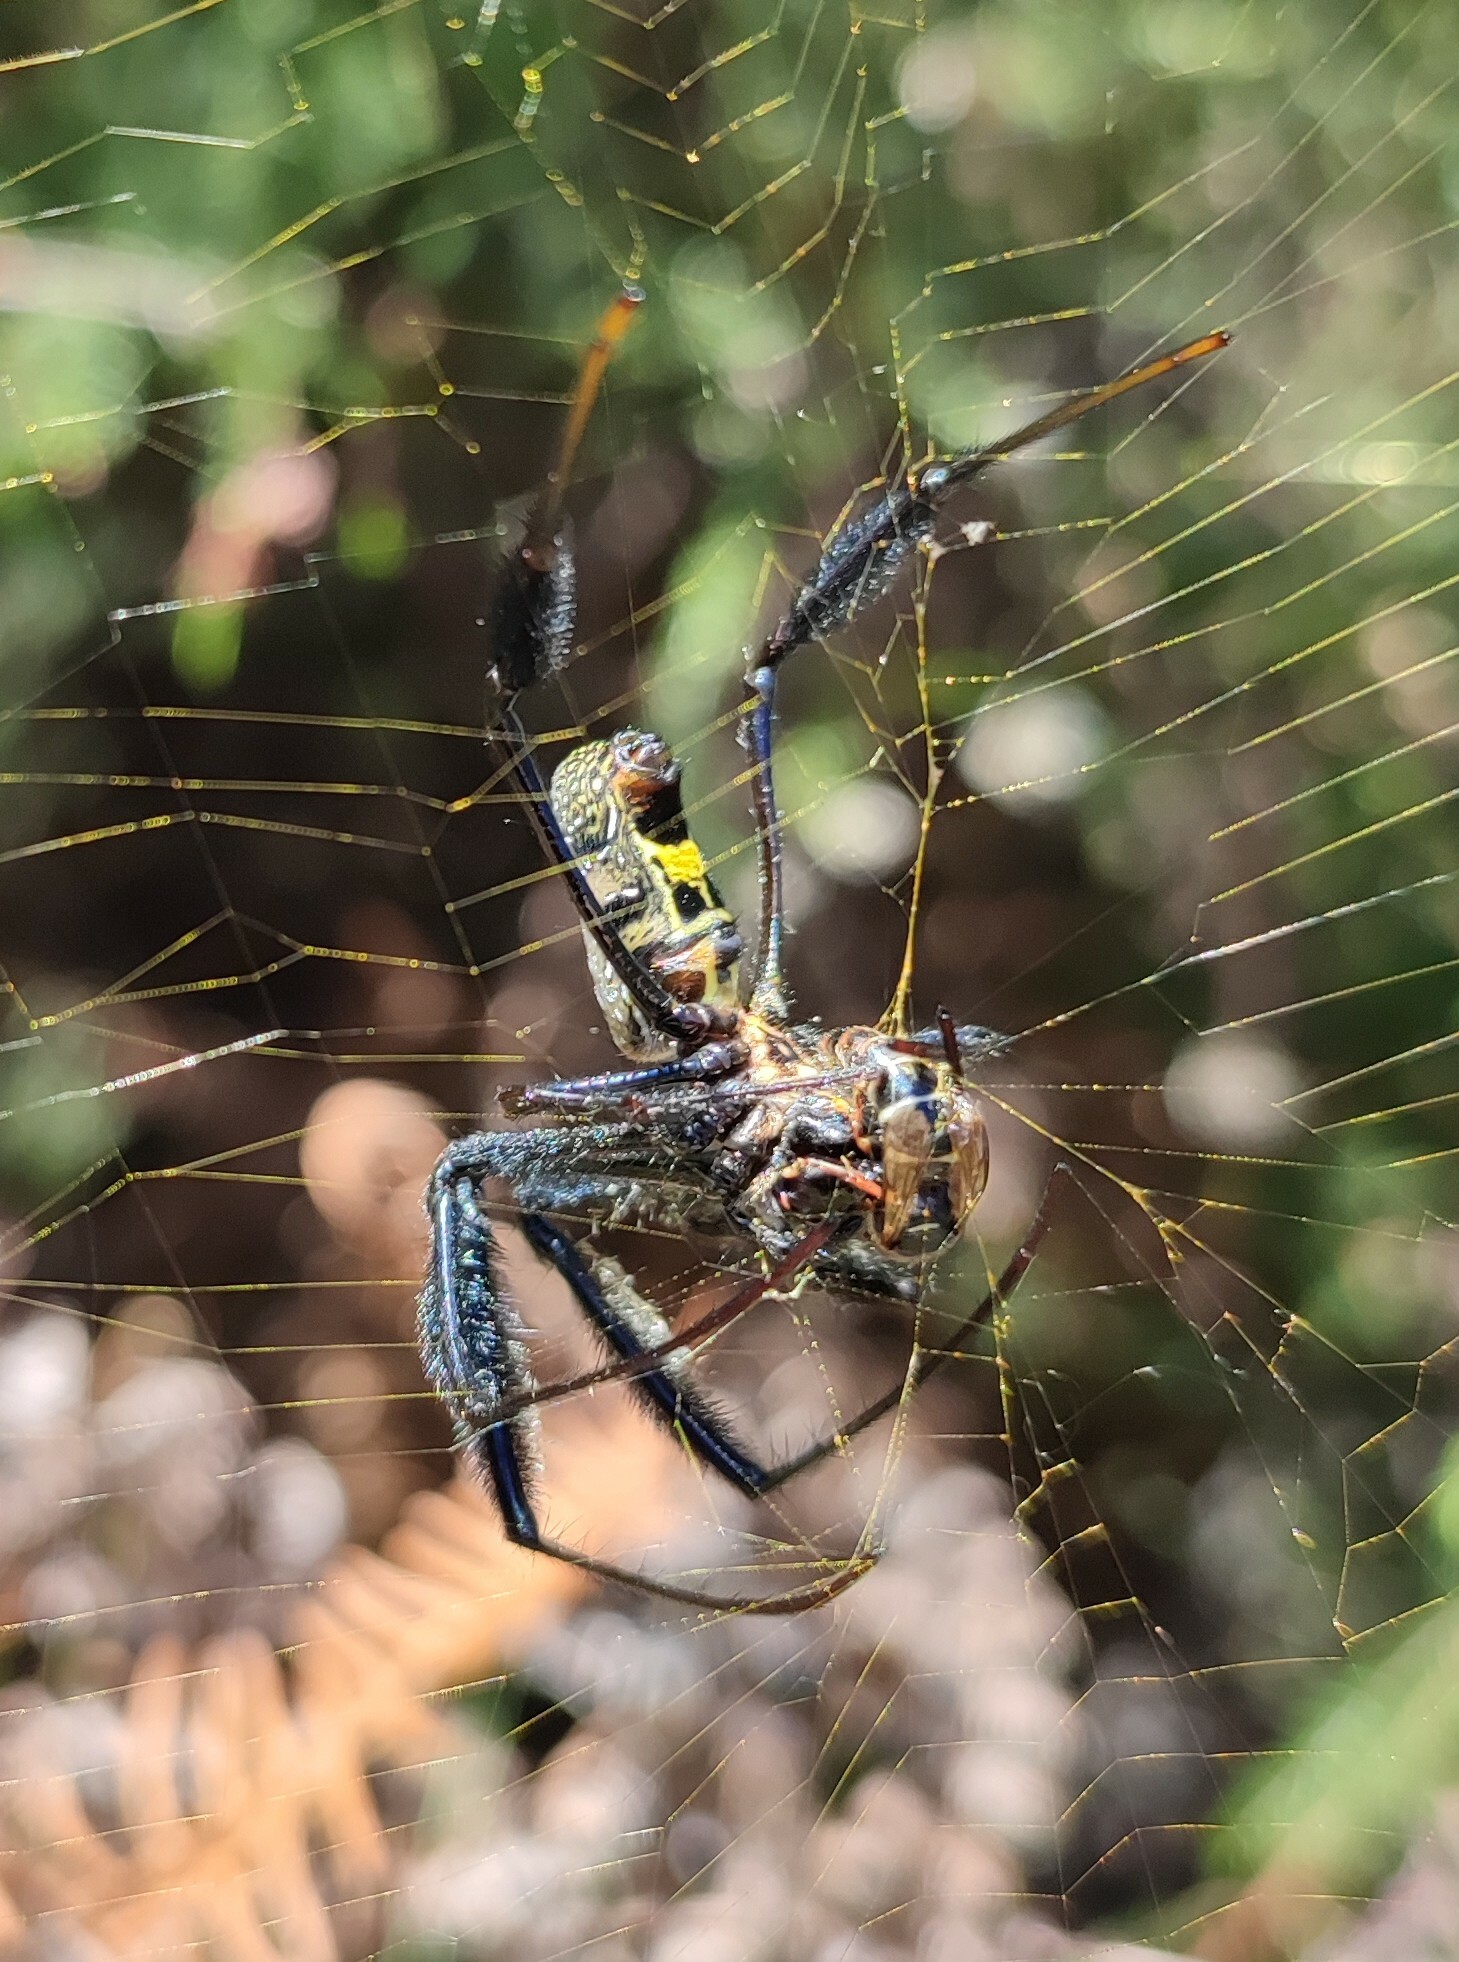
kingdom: Animalia
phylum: Arthropoda
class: Arachnida
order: Araneae
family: Araneidae
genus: Trichonephila
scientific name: Trichonephila fenestrata
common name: Hairy golden orb weaver
